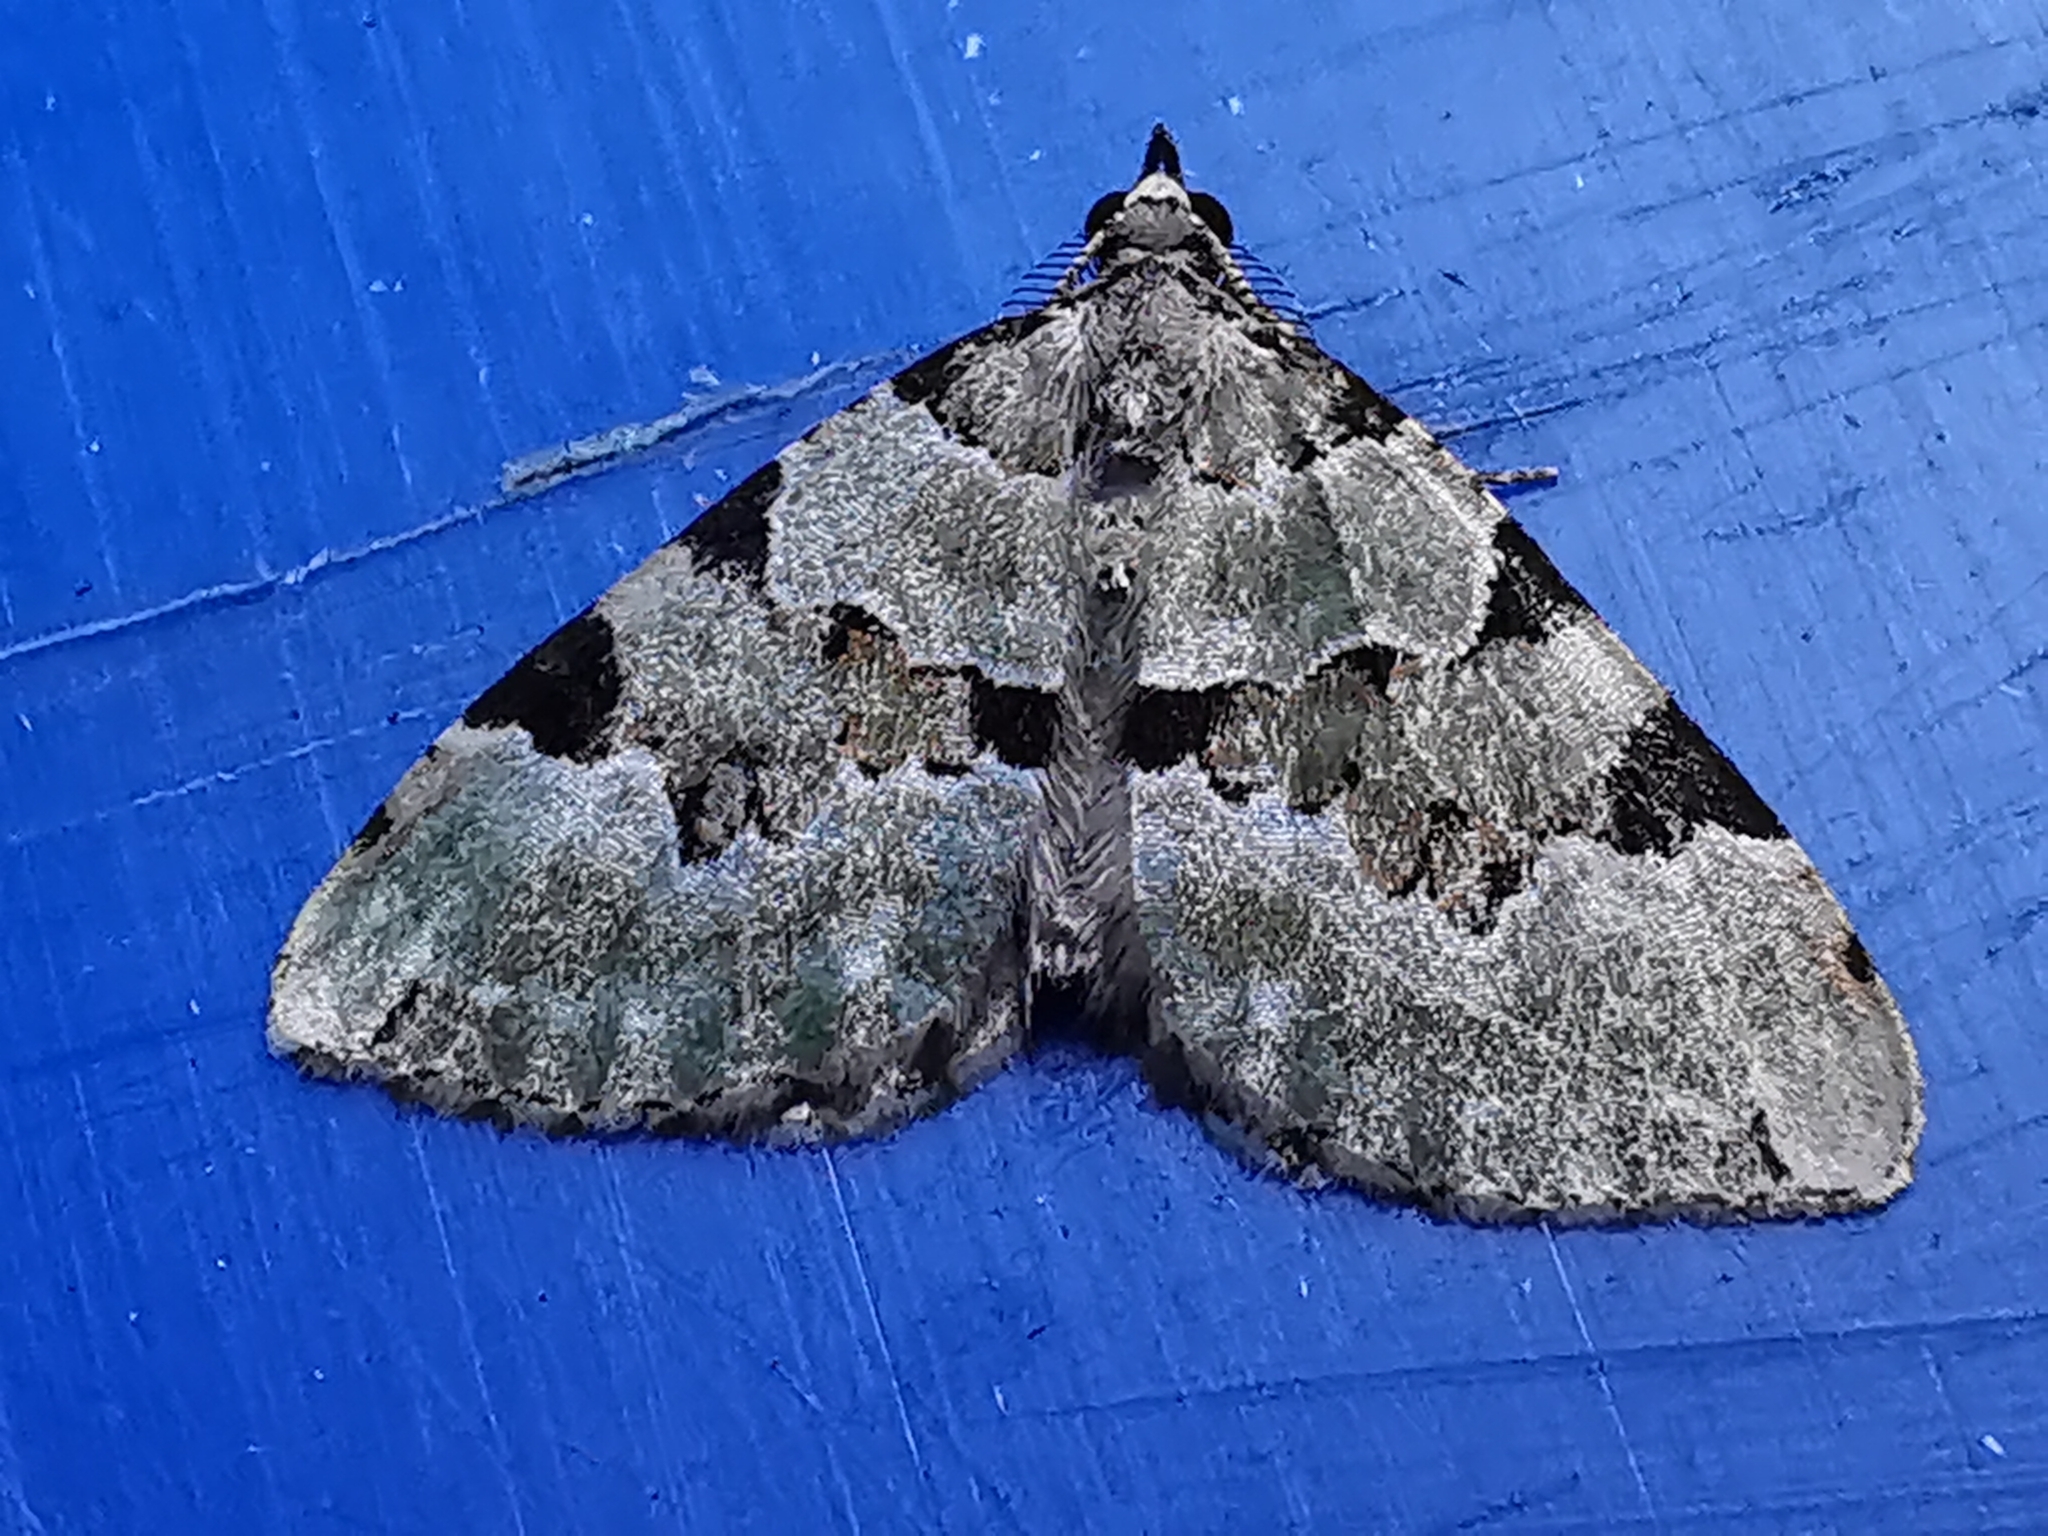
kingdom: Animalia
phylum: Arthropoda
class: Insecta
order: Lepidoptera
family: Geometridae
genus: Colostygia
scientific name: Colostygia pectinataria
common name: Green carpet
